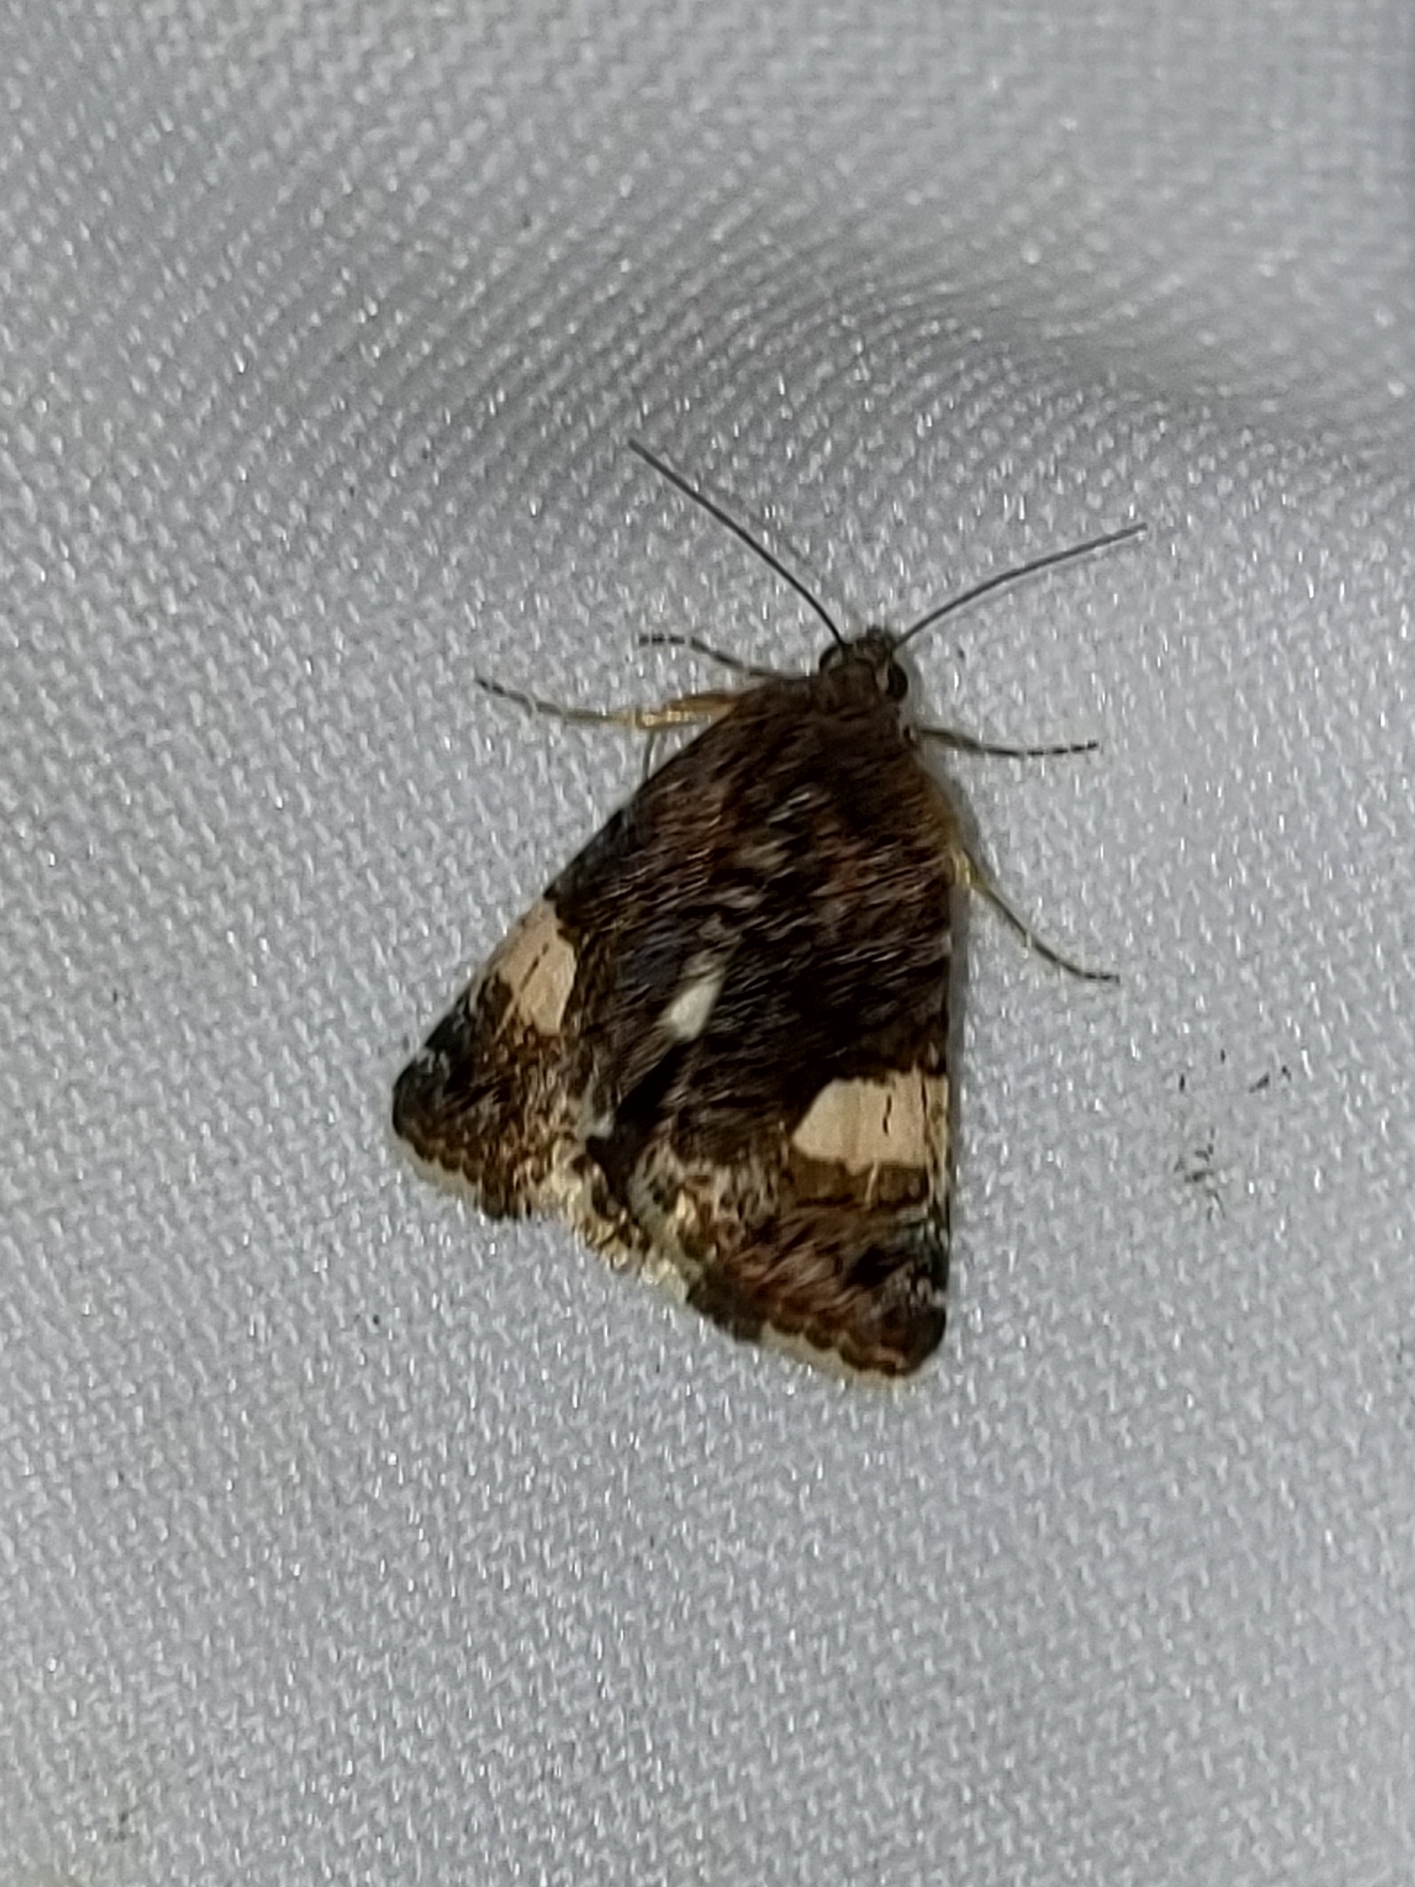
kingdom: Animalia
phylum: Arthropoda
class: Insecta
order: Lepidoptera
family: Erebidae
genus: Tyta
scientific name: Tyta luctuosa
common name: Four-spotted
